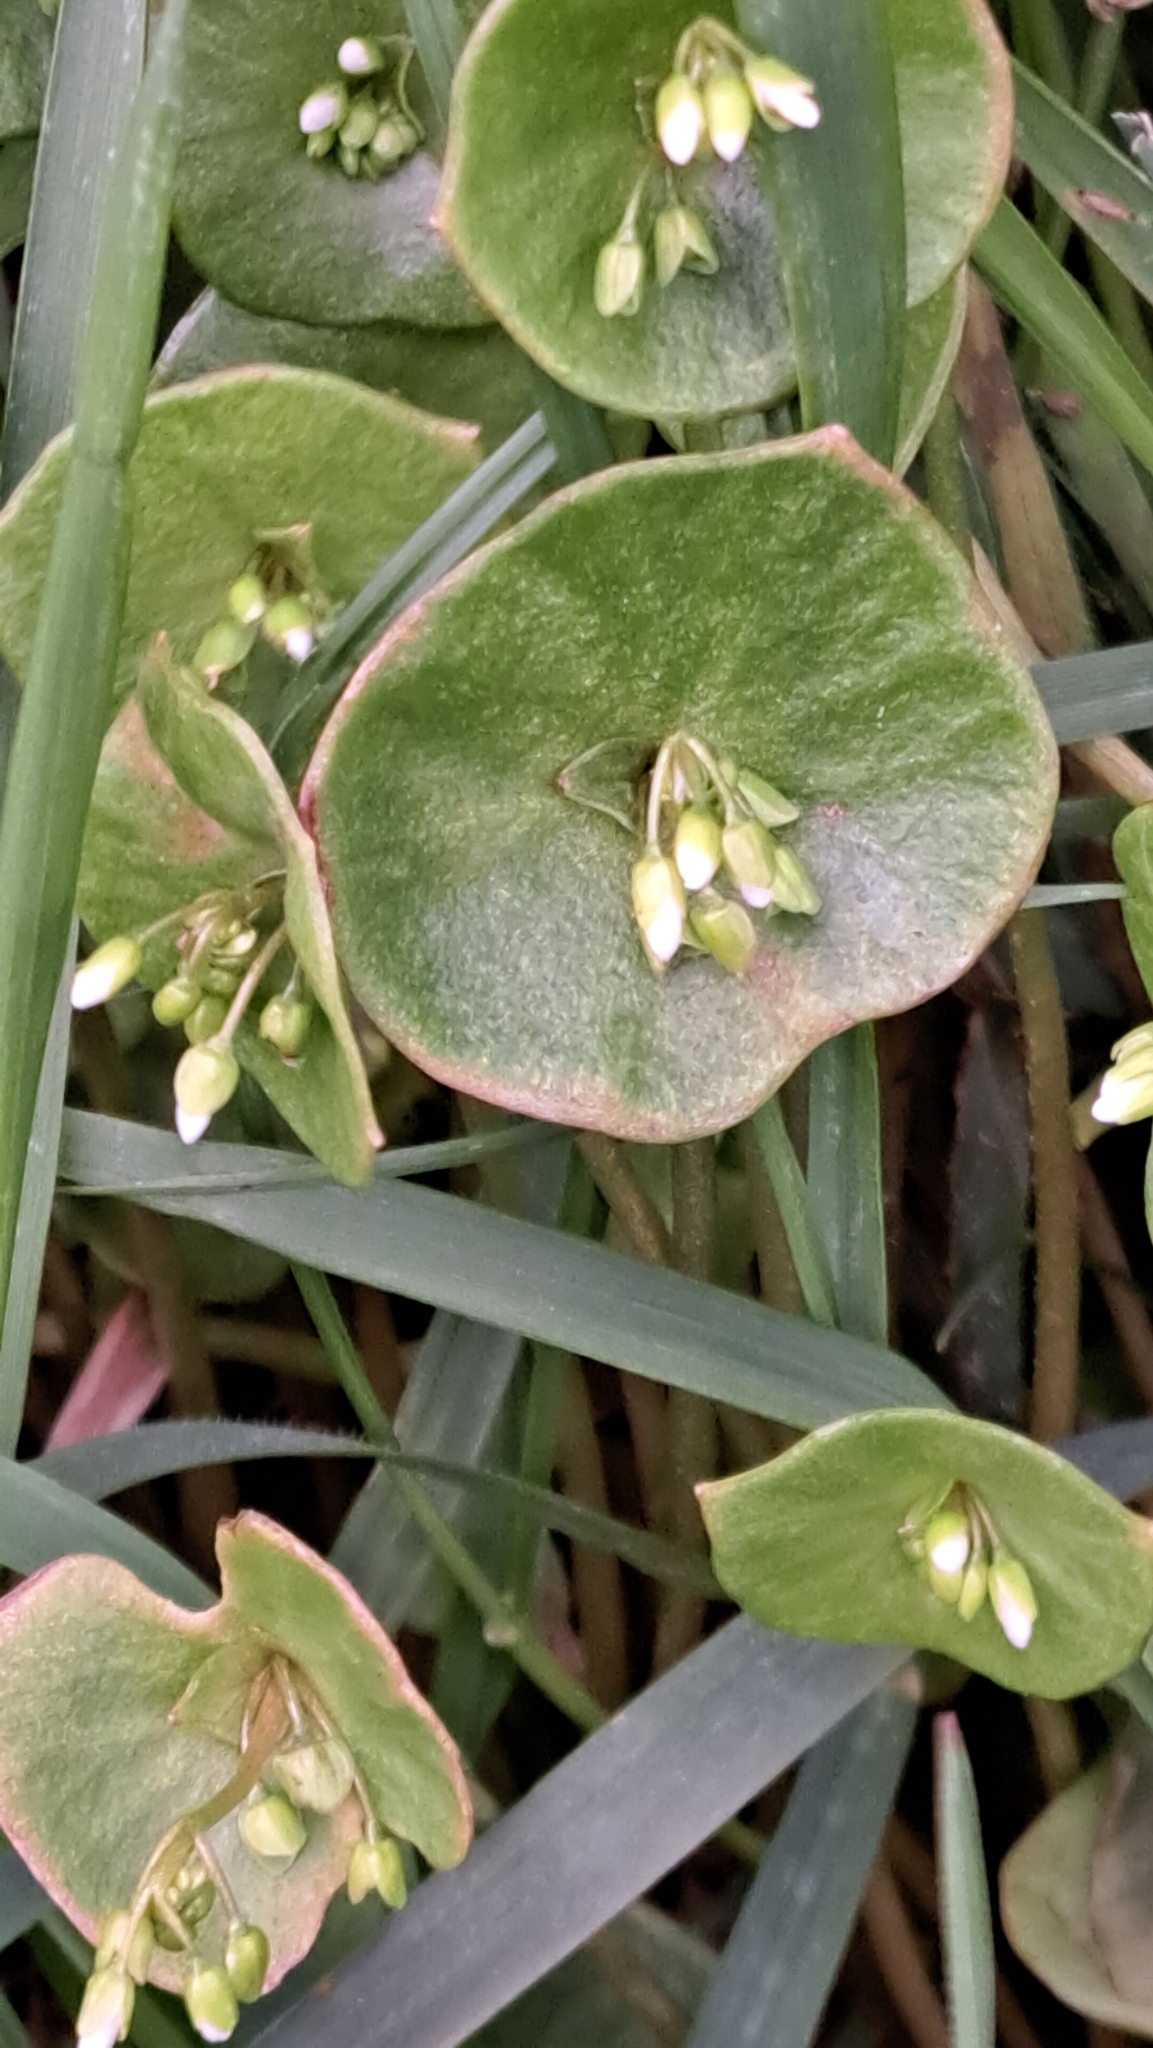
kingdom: Plantae
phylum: Tracheophyta
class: Magnoliopsida
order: Caryophyllales
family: Montiaceae
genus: Claytonia
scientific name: Claytonia perfoliata
